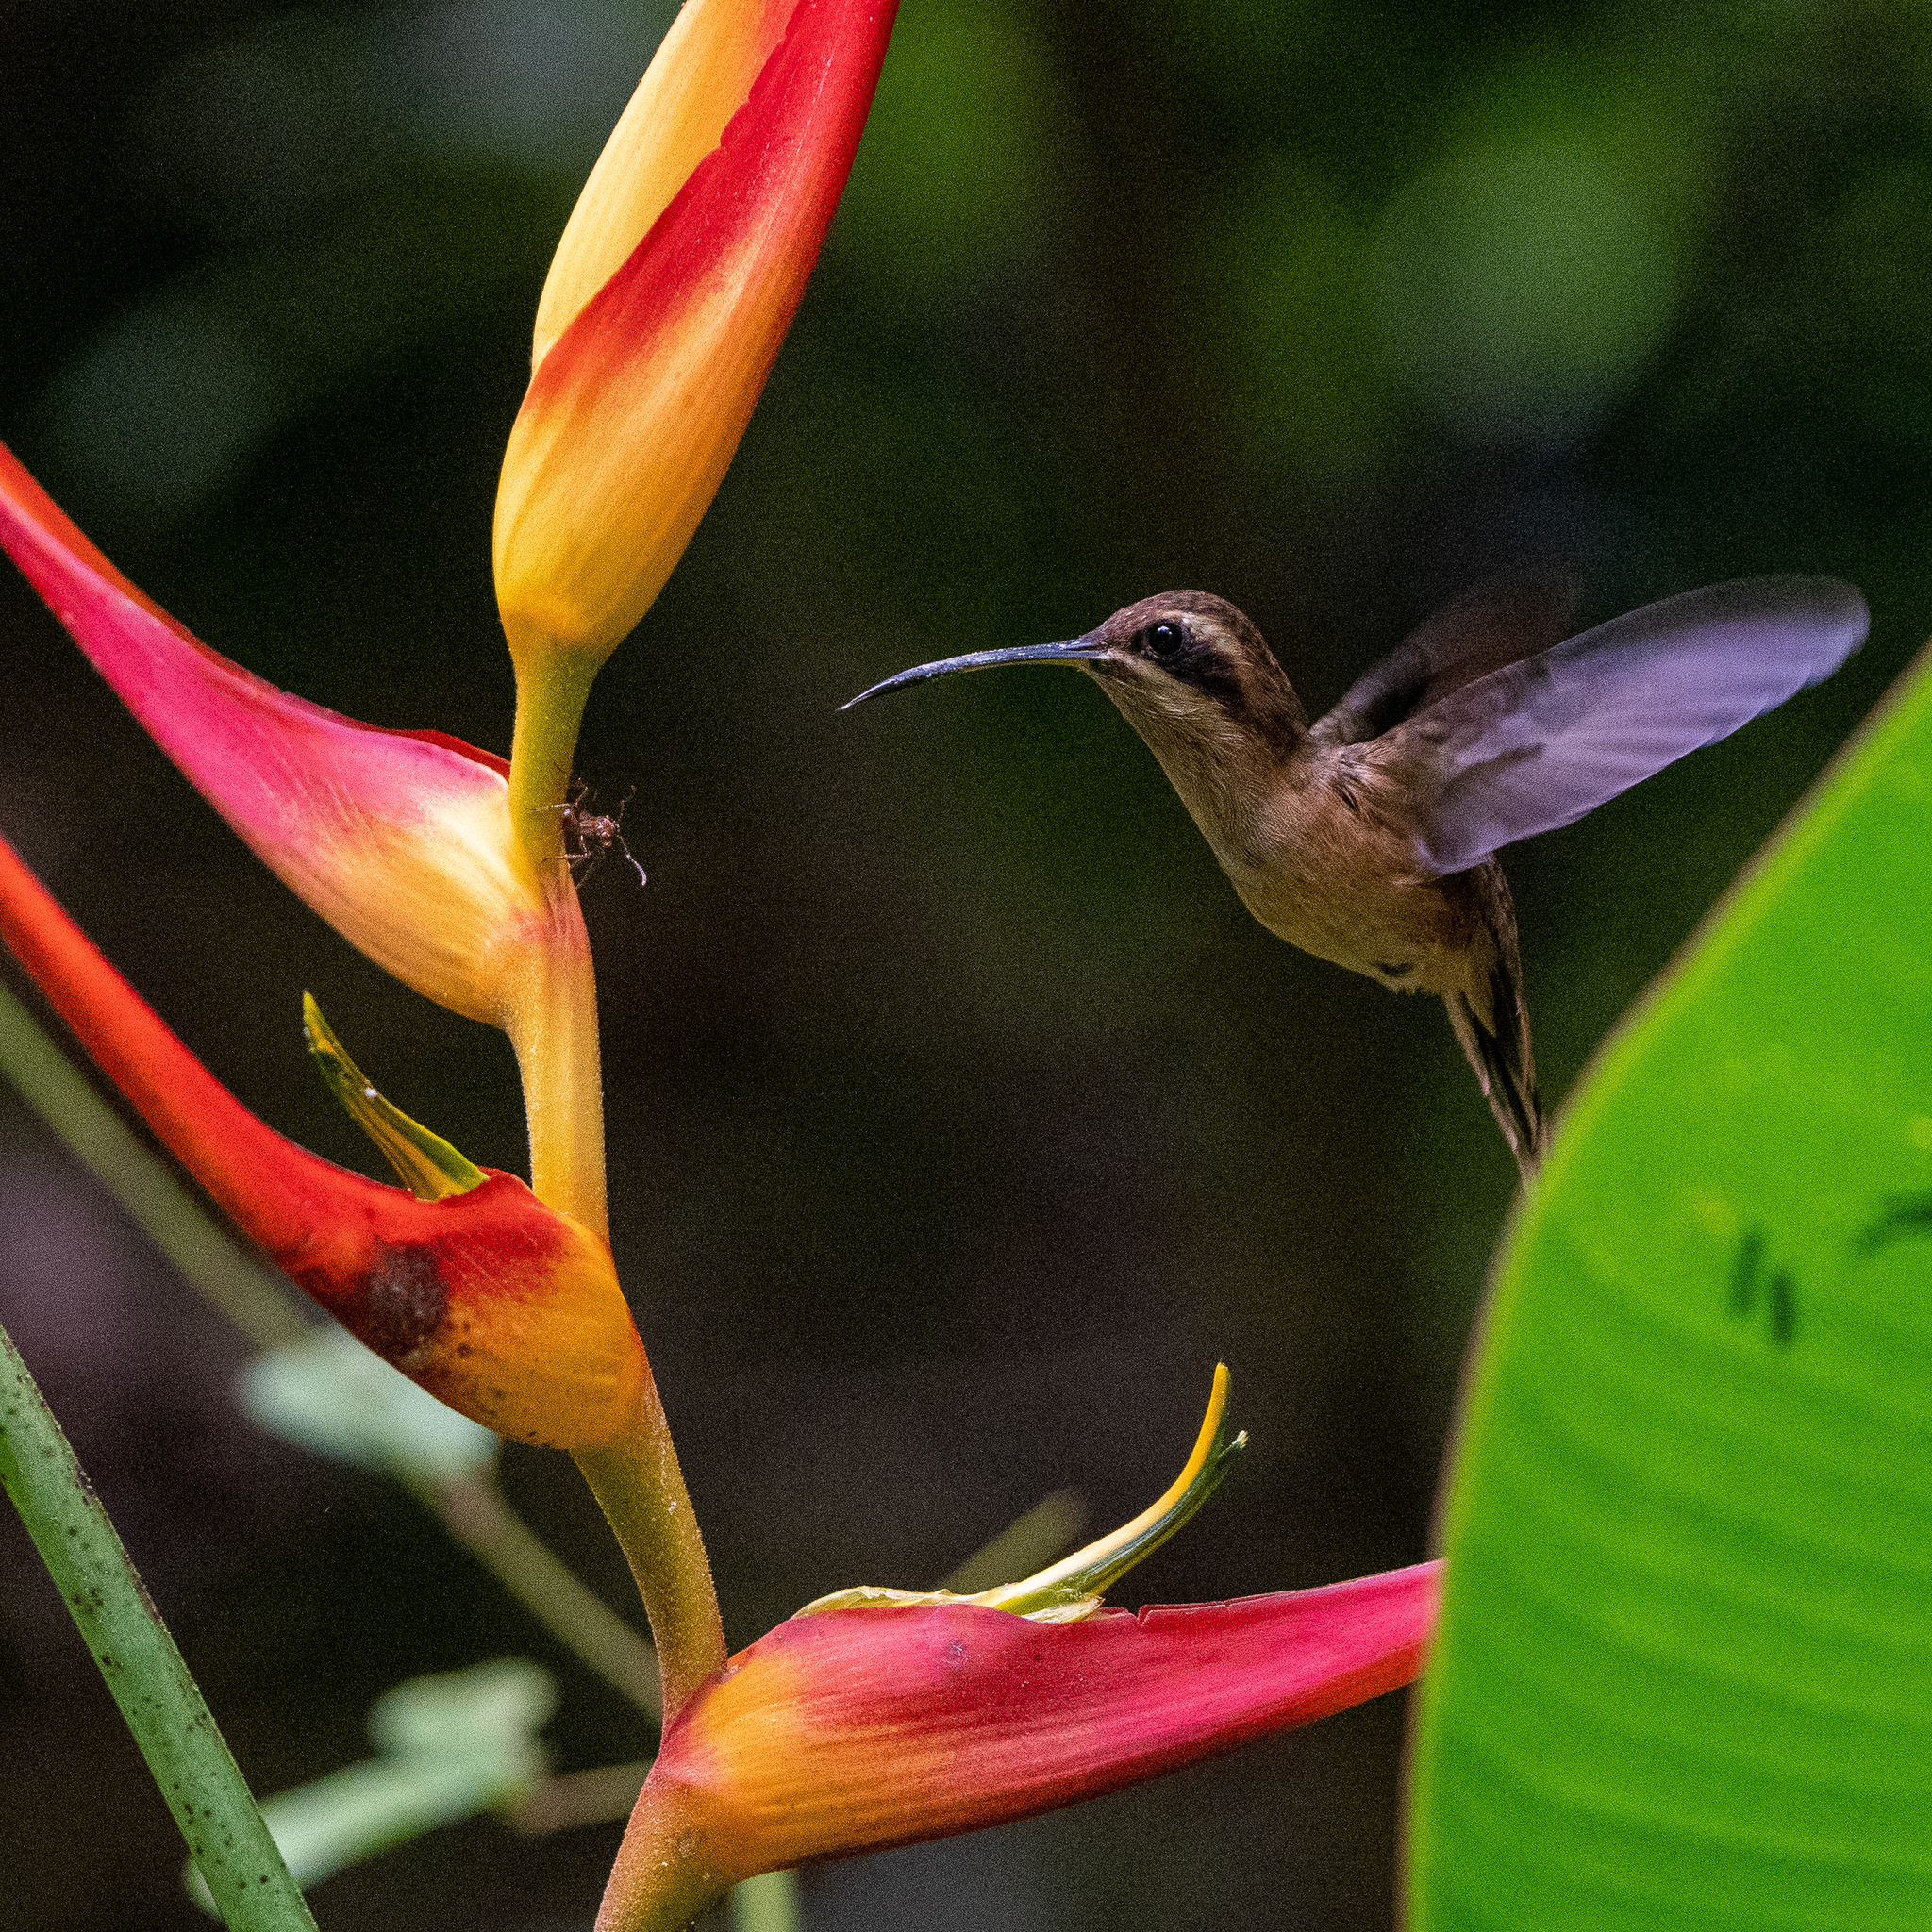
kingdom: Animalia
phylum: Chordata
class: Aves
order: Apodiformes
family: Trochilidae
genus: Phaethornis
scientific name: Phaethornis striigularis
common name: Stripe-throated hermit
